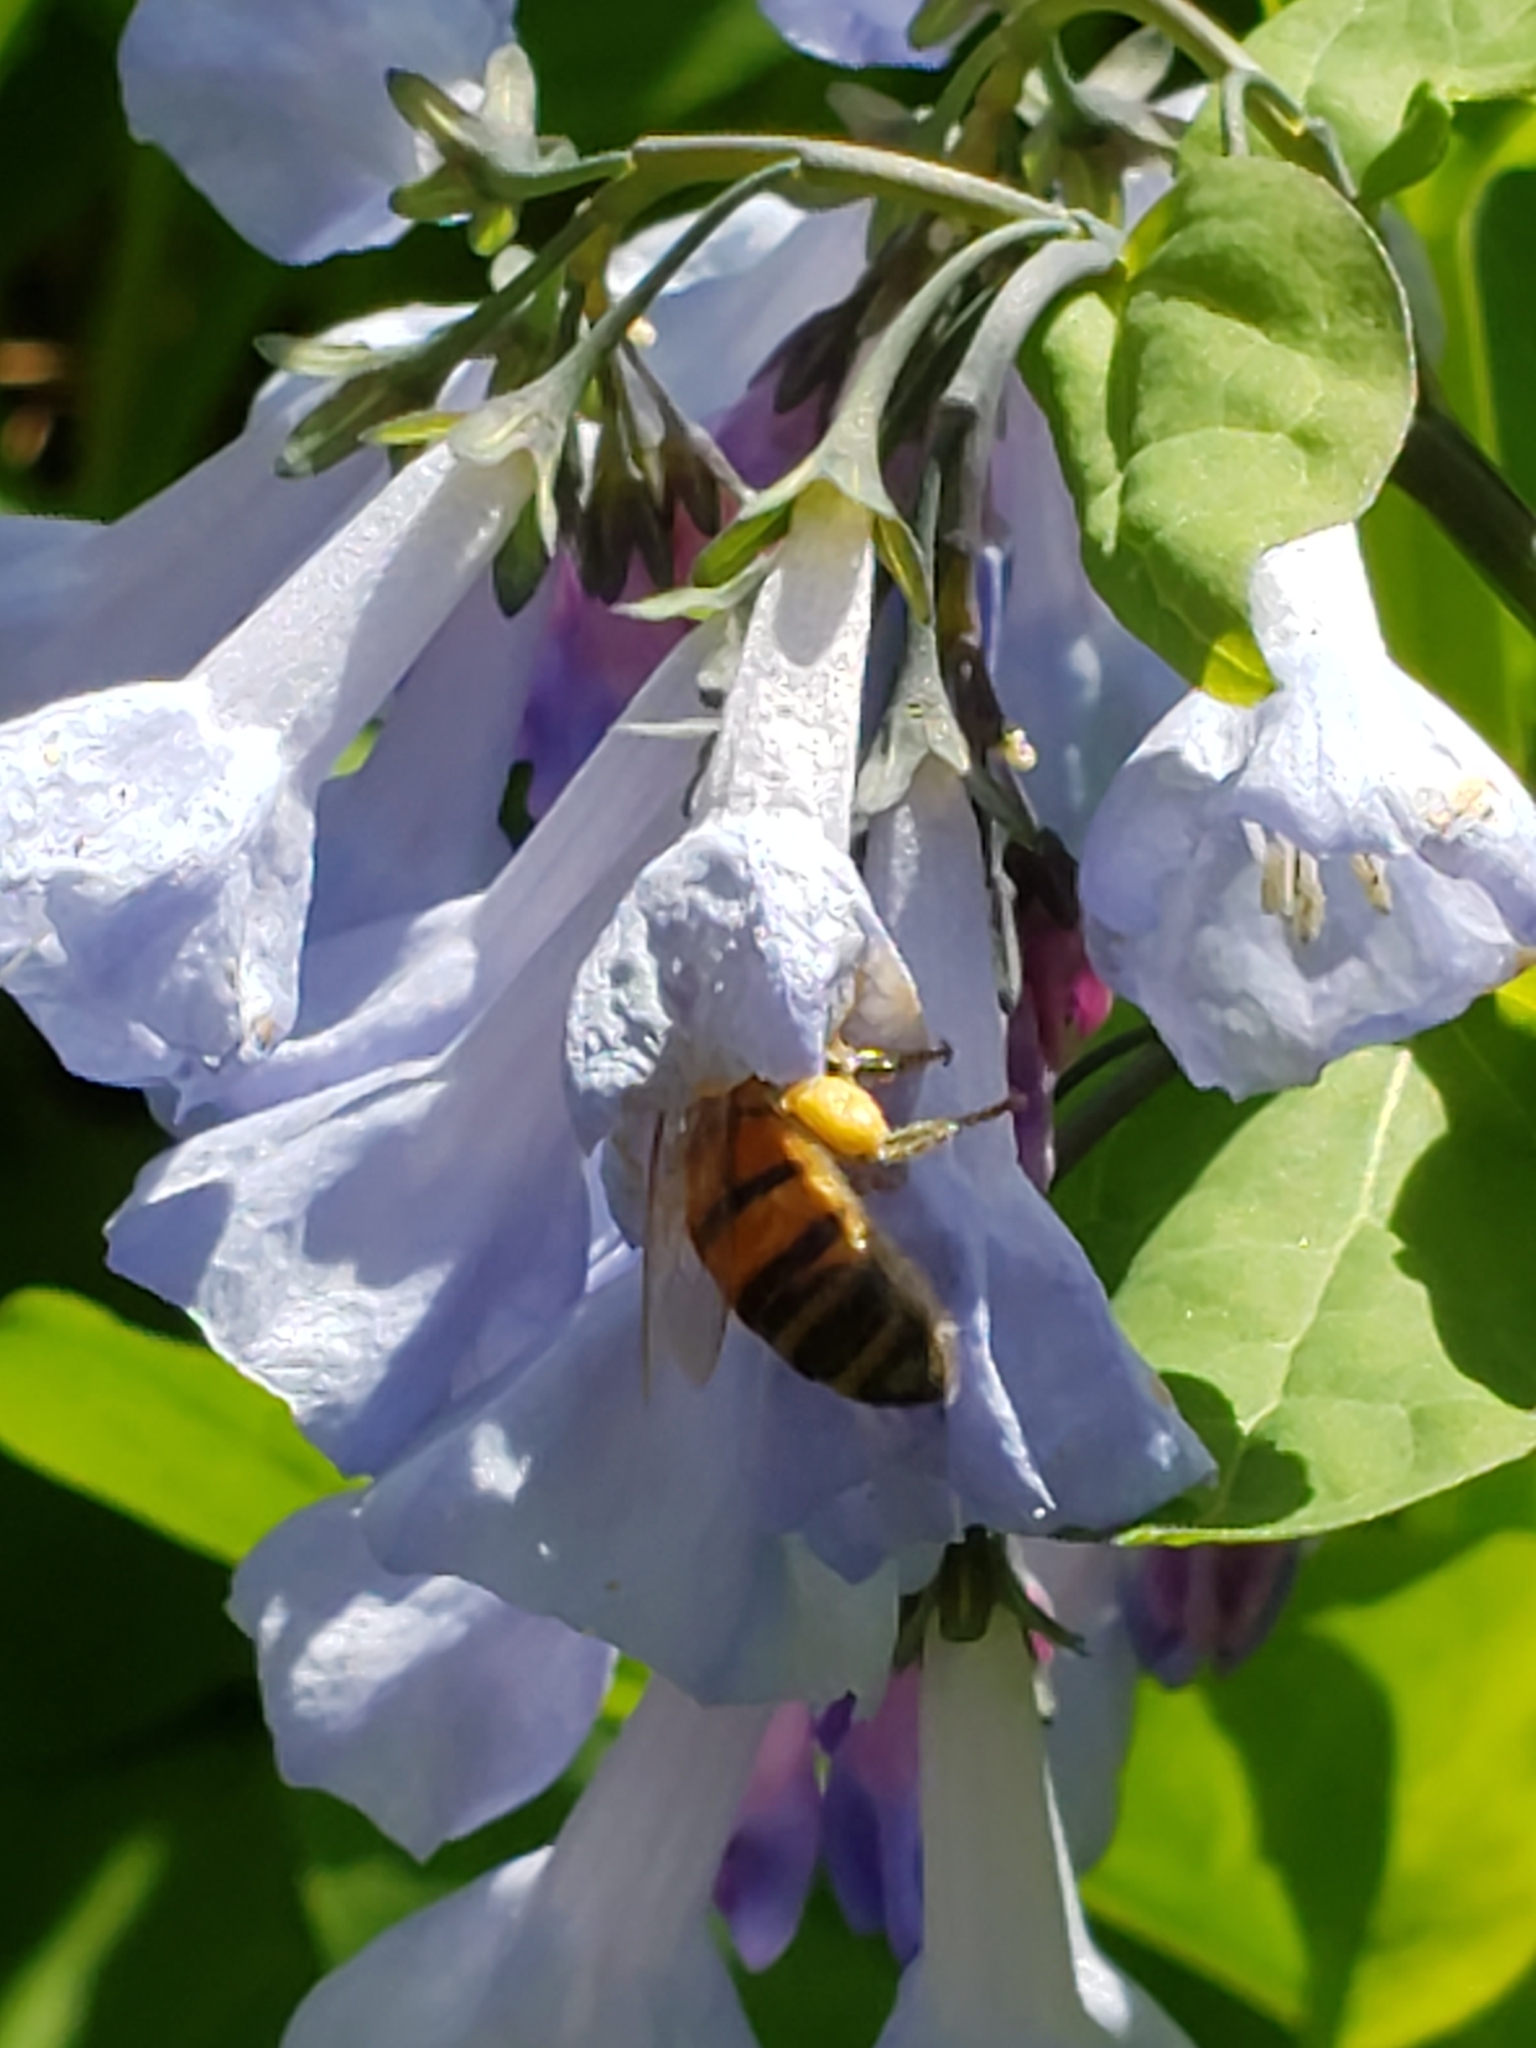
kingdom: Animalia
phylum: Arthropoda
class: Insecta
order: Hymenoptera
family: Apidae
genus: Apis
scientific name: Apis mellifera
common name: Honey bee
